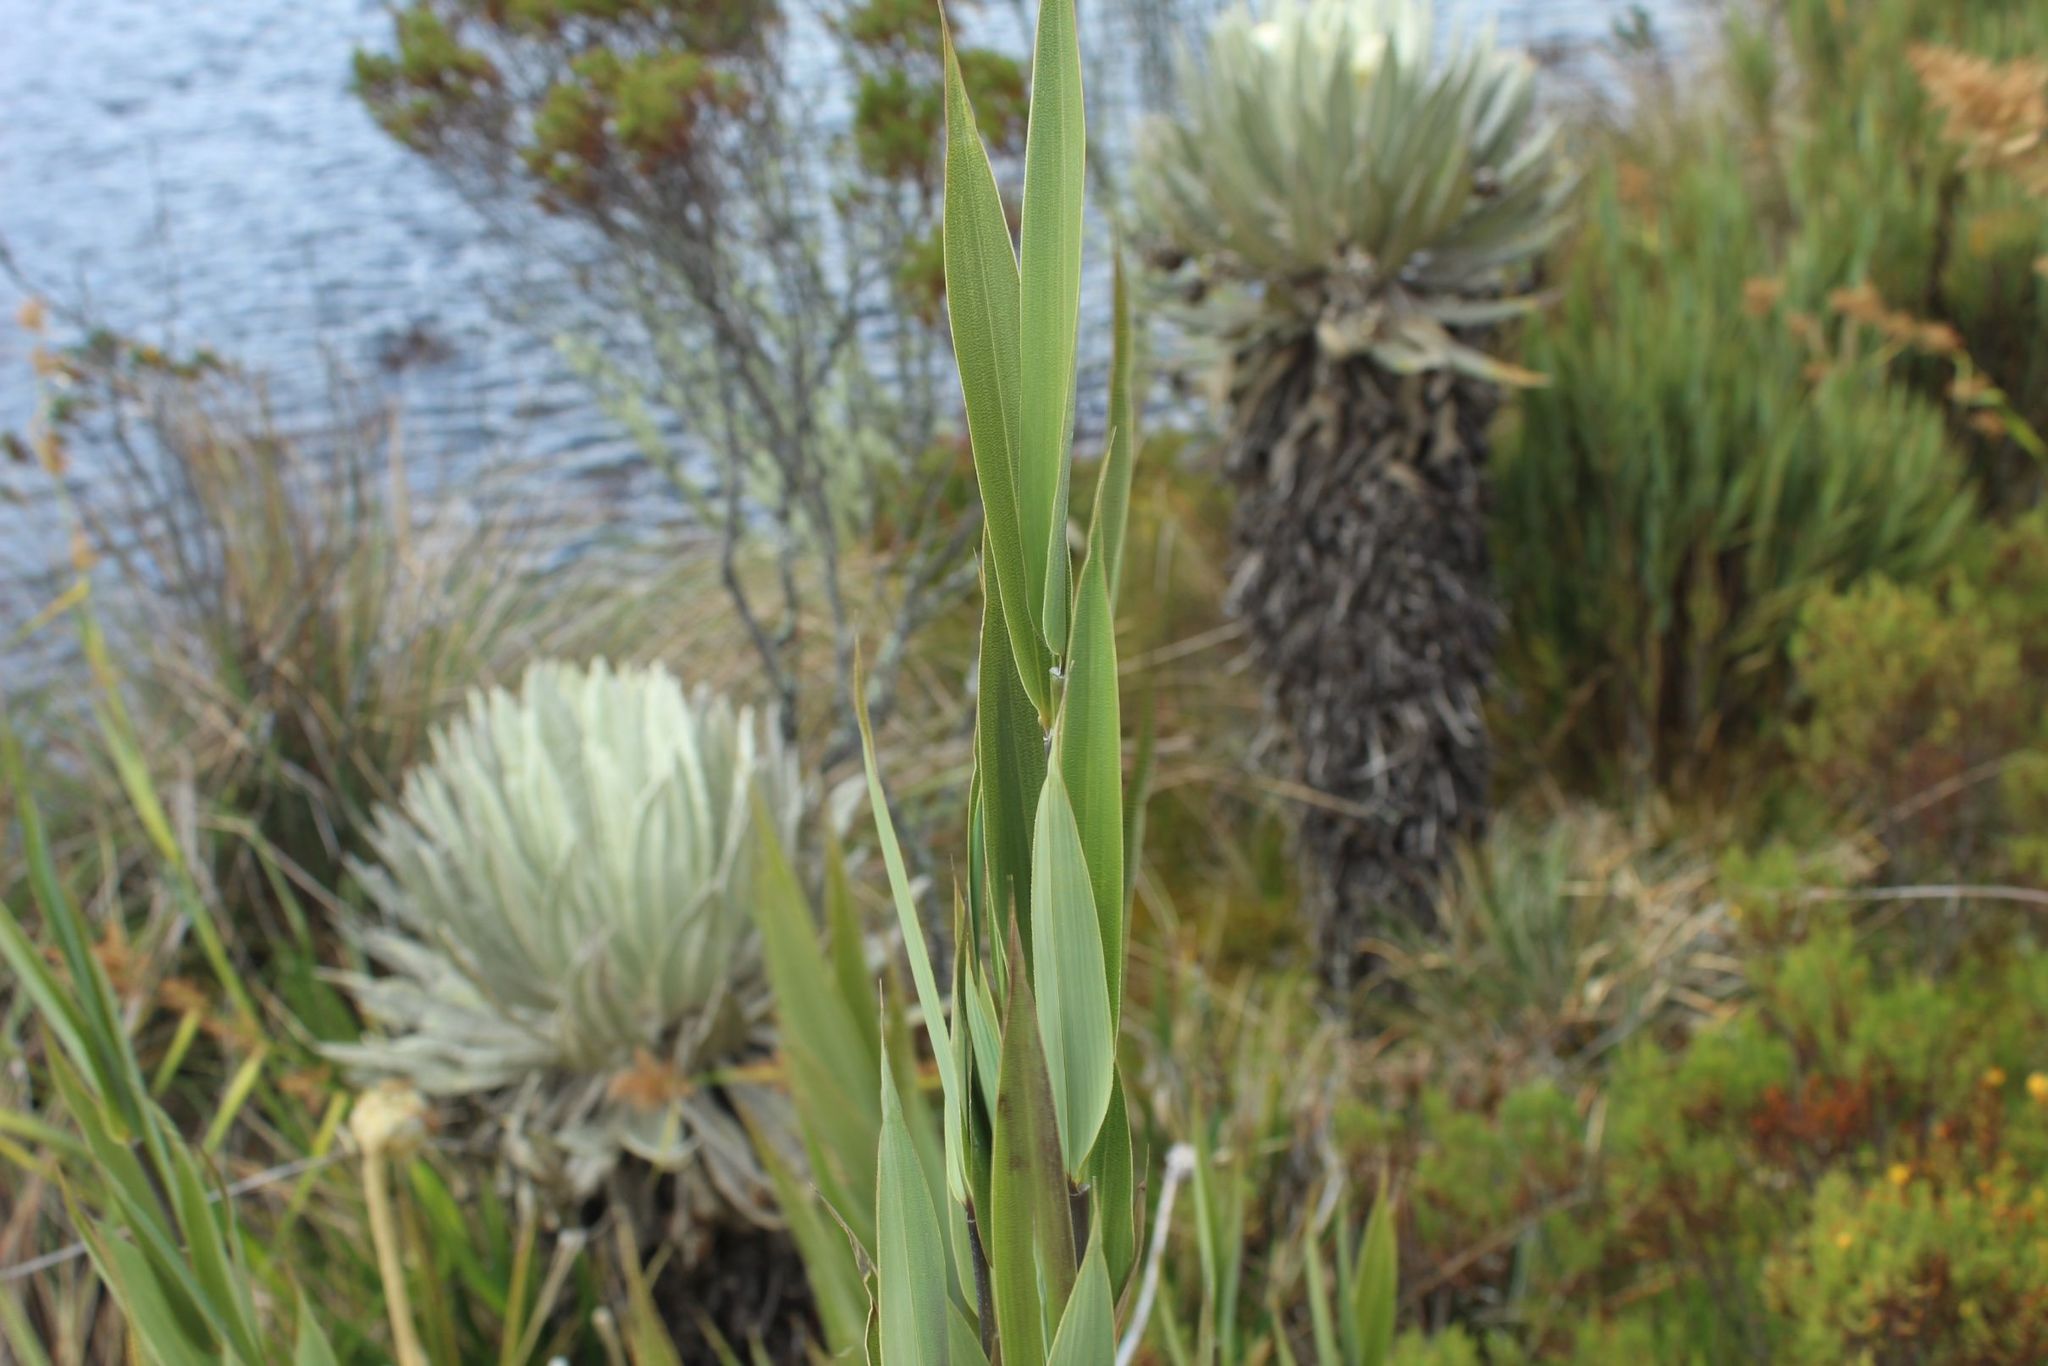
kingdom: Plantae
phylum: Tracheophyta
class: Liliopsida
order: Poales
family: Poaceae
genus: Chusquea
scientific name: Chusquea tessellata
